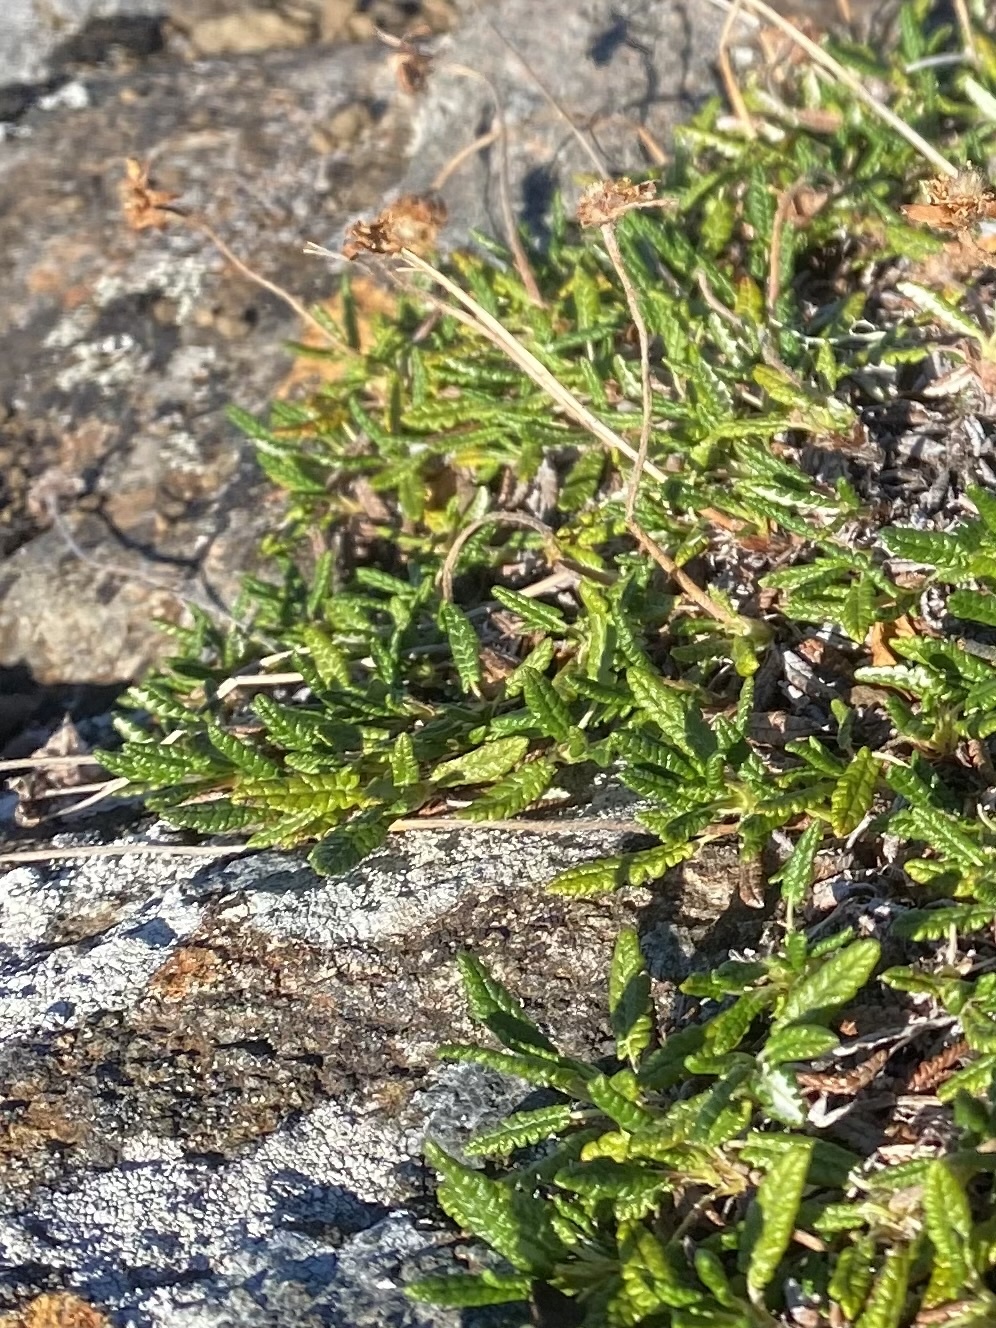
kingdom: Plantae
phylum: Tracheophyta
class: Magnoliopsida
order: Rosales
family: Rosaceae
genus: Dryas
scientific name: Dryas octopetala
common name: Eight-petal mountain-avens
